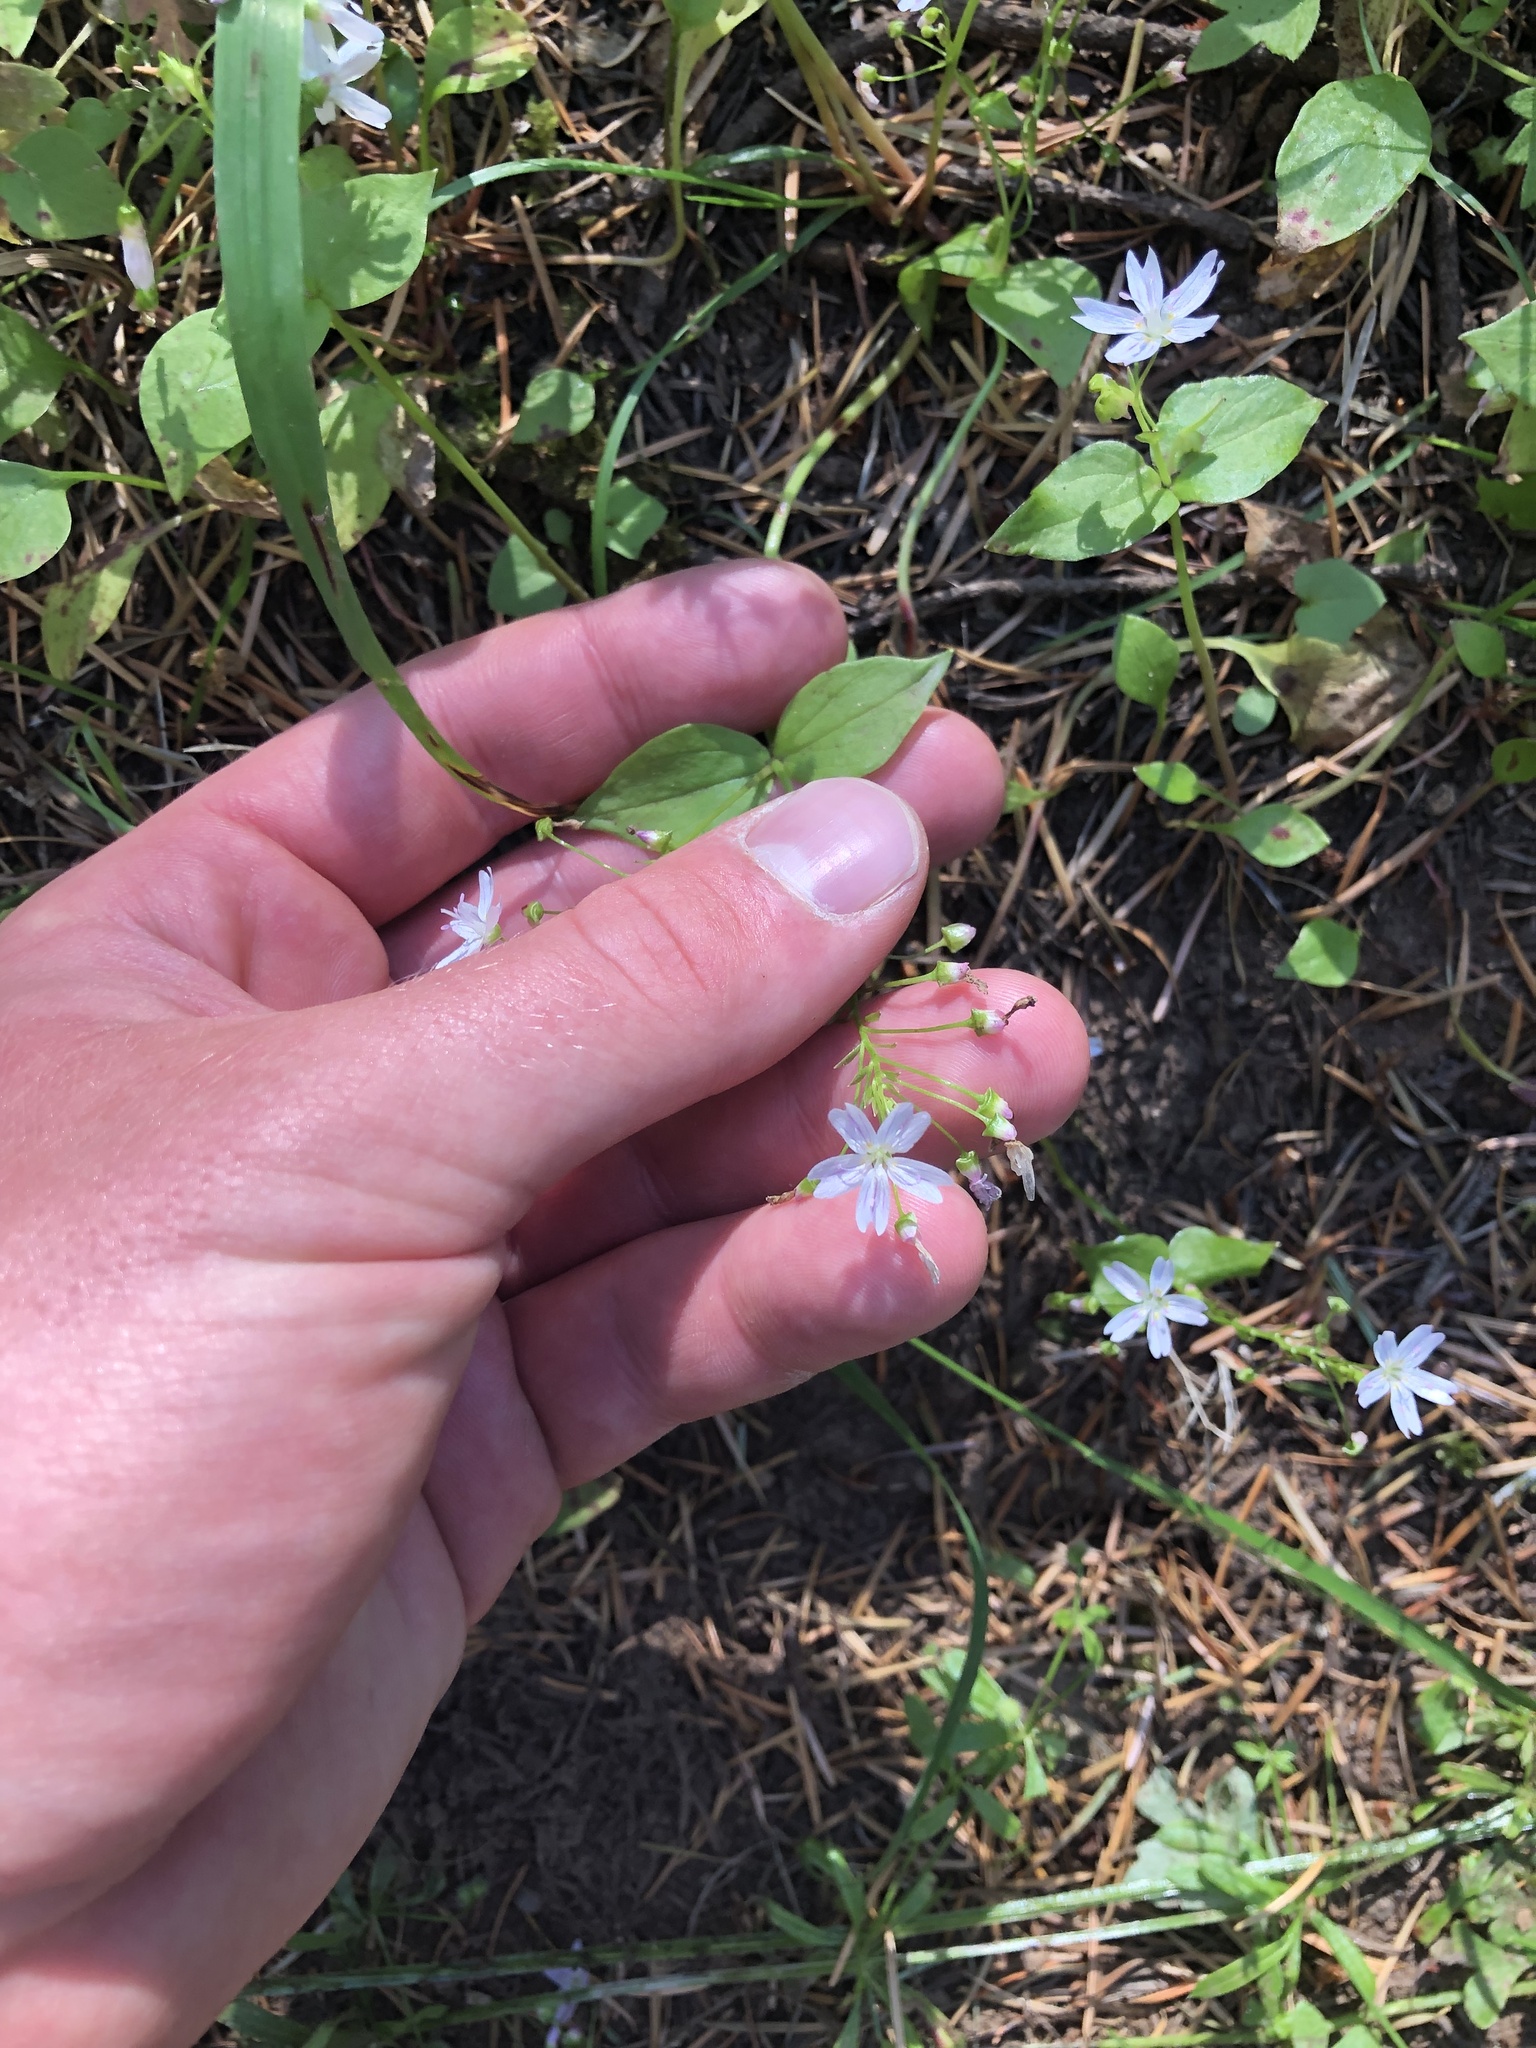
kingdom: Plantae
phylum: Tracheophyta
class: Magnoliopsida
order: Caryophyllales
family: Montiaceae
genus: Claytonia
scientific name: Claytonia sibirica
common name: Pink purslane
